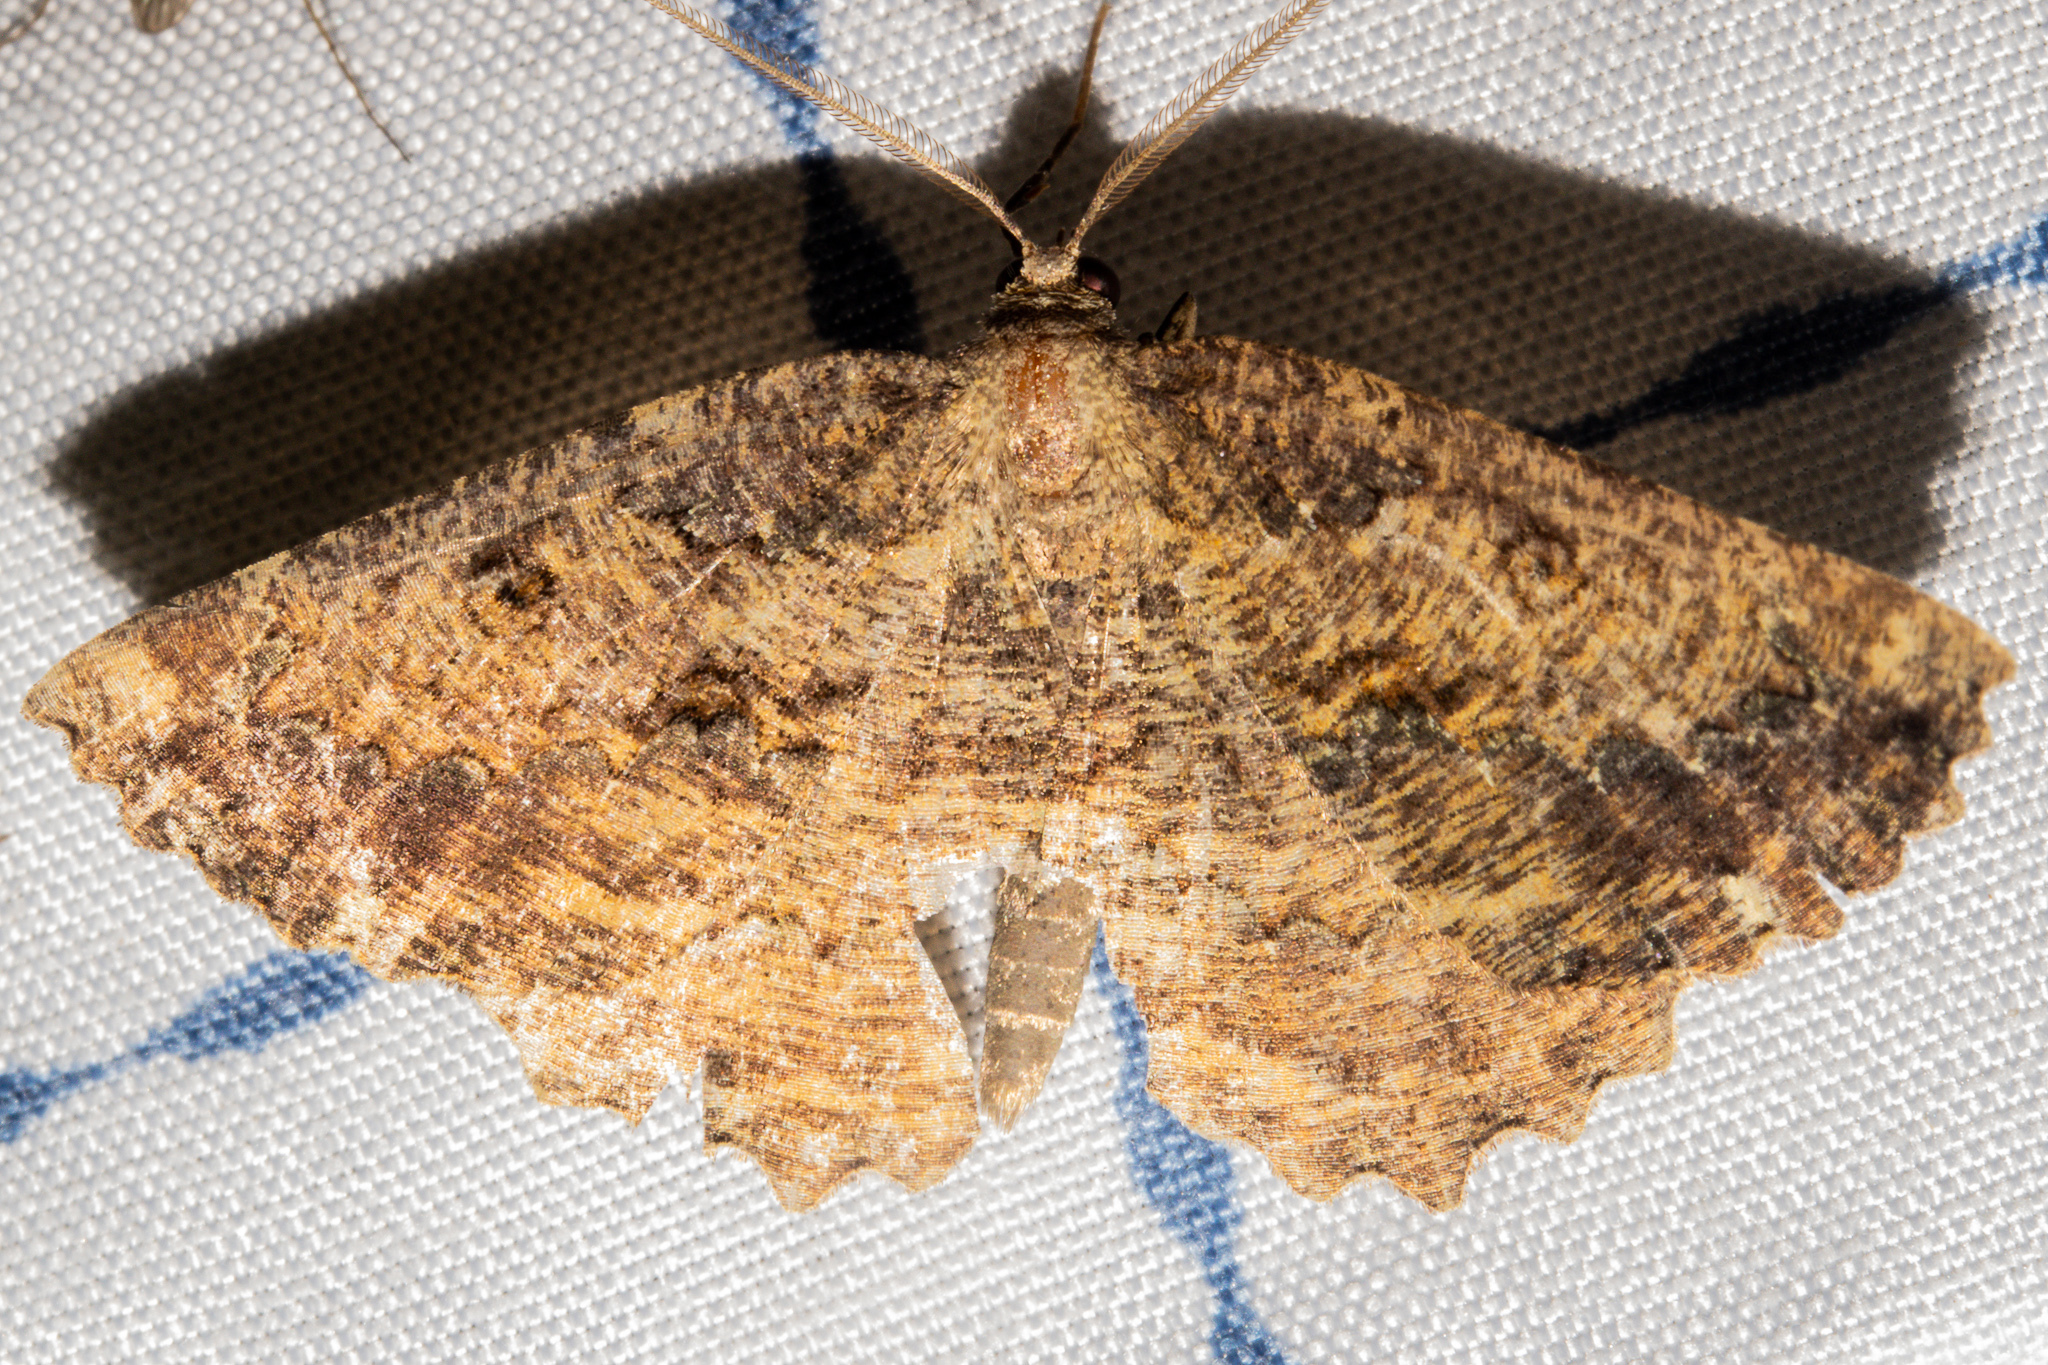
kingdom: Animalia
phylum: Arthropoda
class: Insecta
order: Lepidoptera
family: Geometridae
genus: Gellonia
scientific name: Gellonia pannularia
